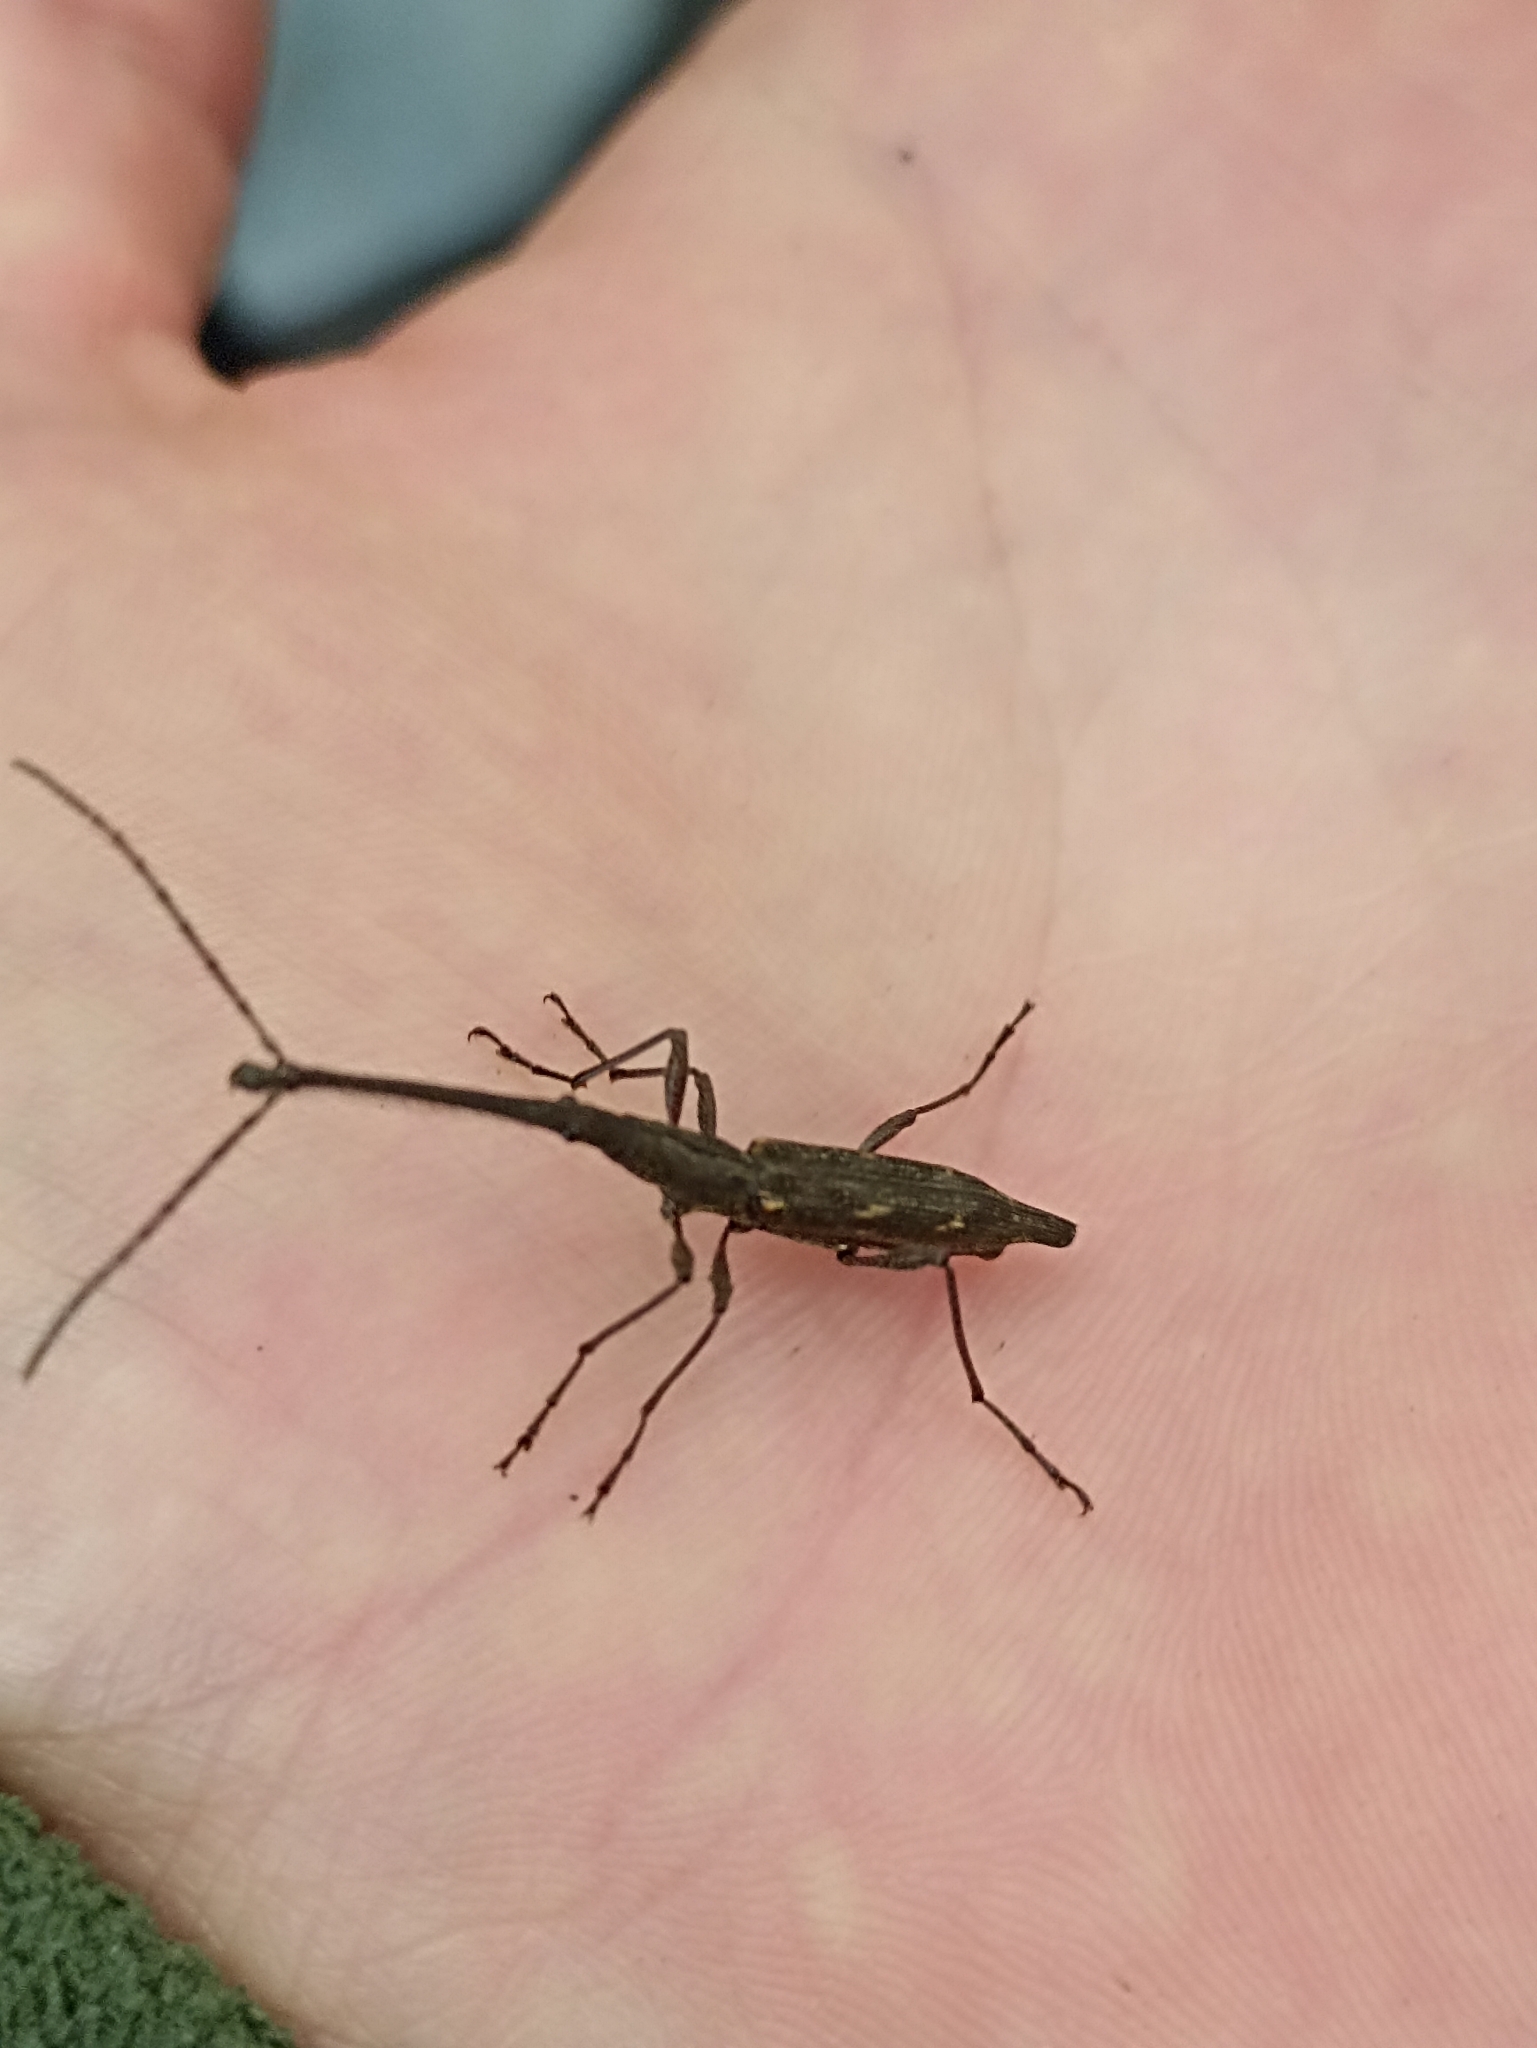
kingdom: Animalia
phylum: Arthropoda
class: Insecta
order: Coleoptera
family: Brentidae
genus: Lasiorhynchus
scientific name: Lasiorhynchus barbicornis
